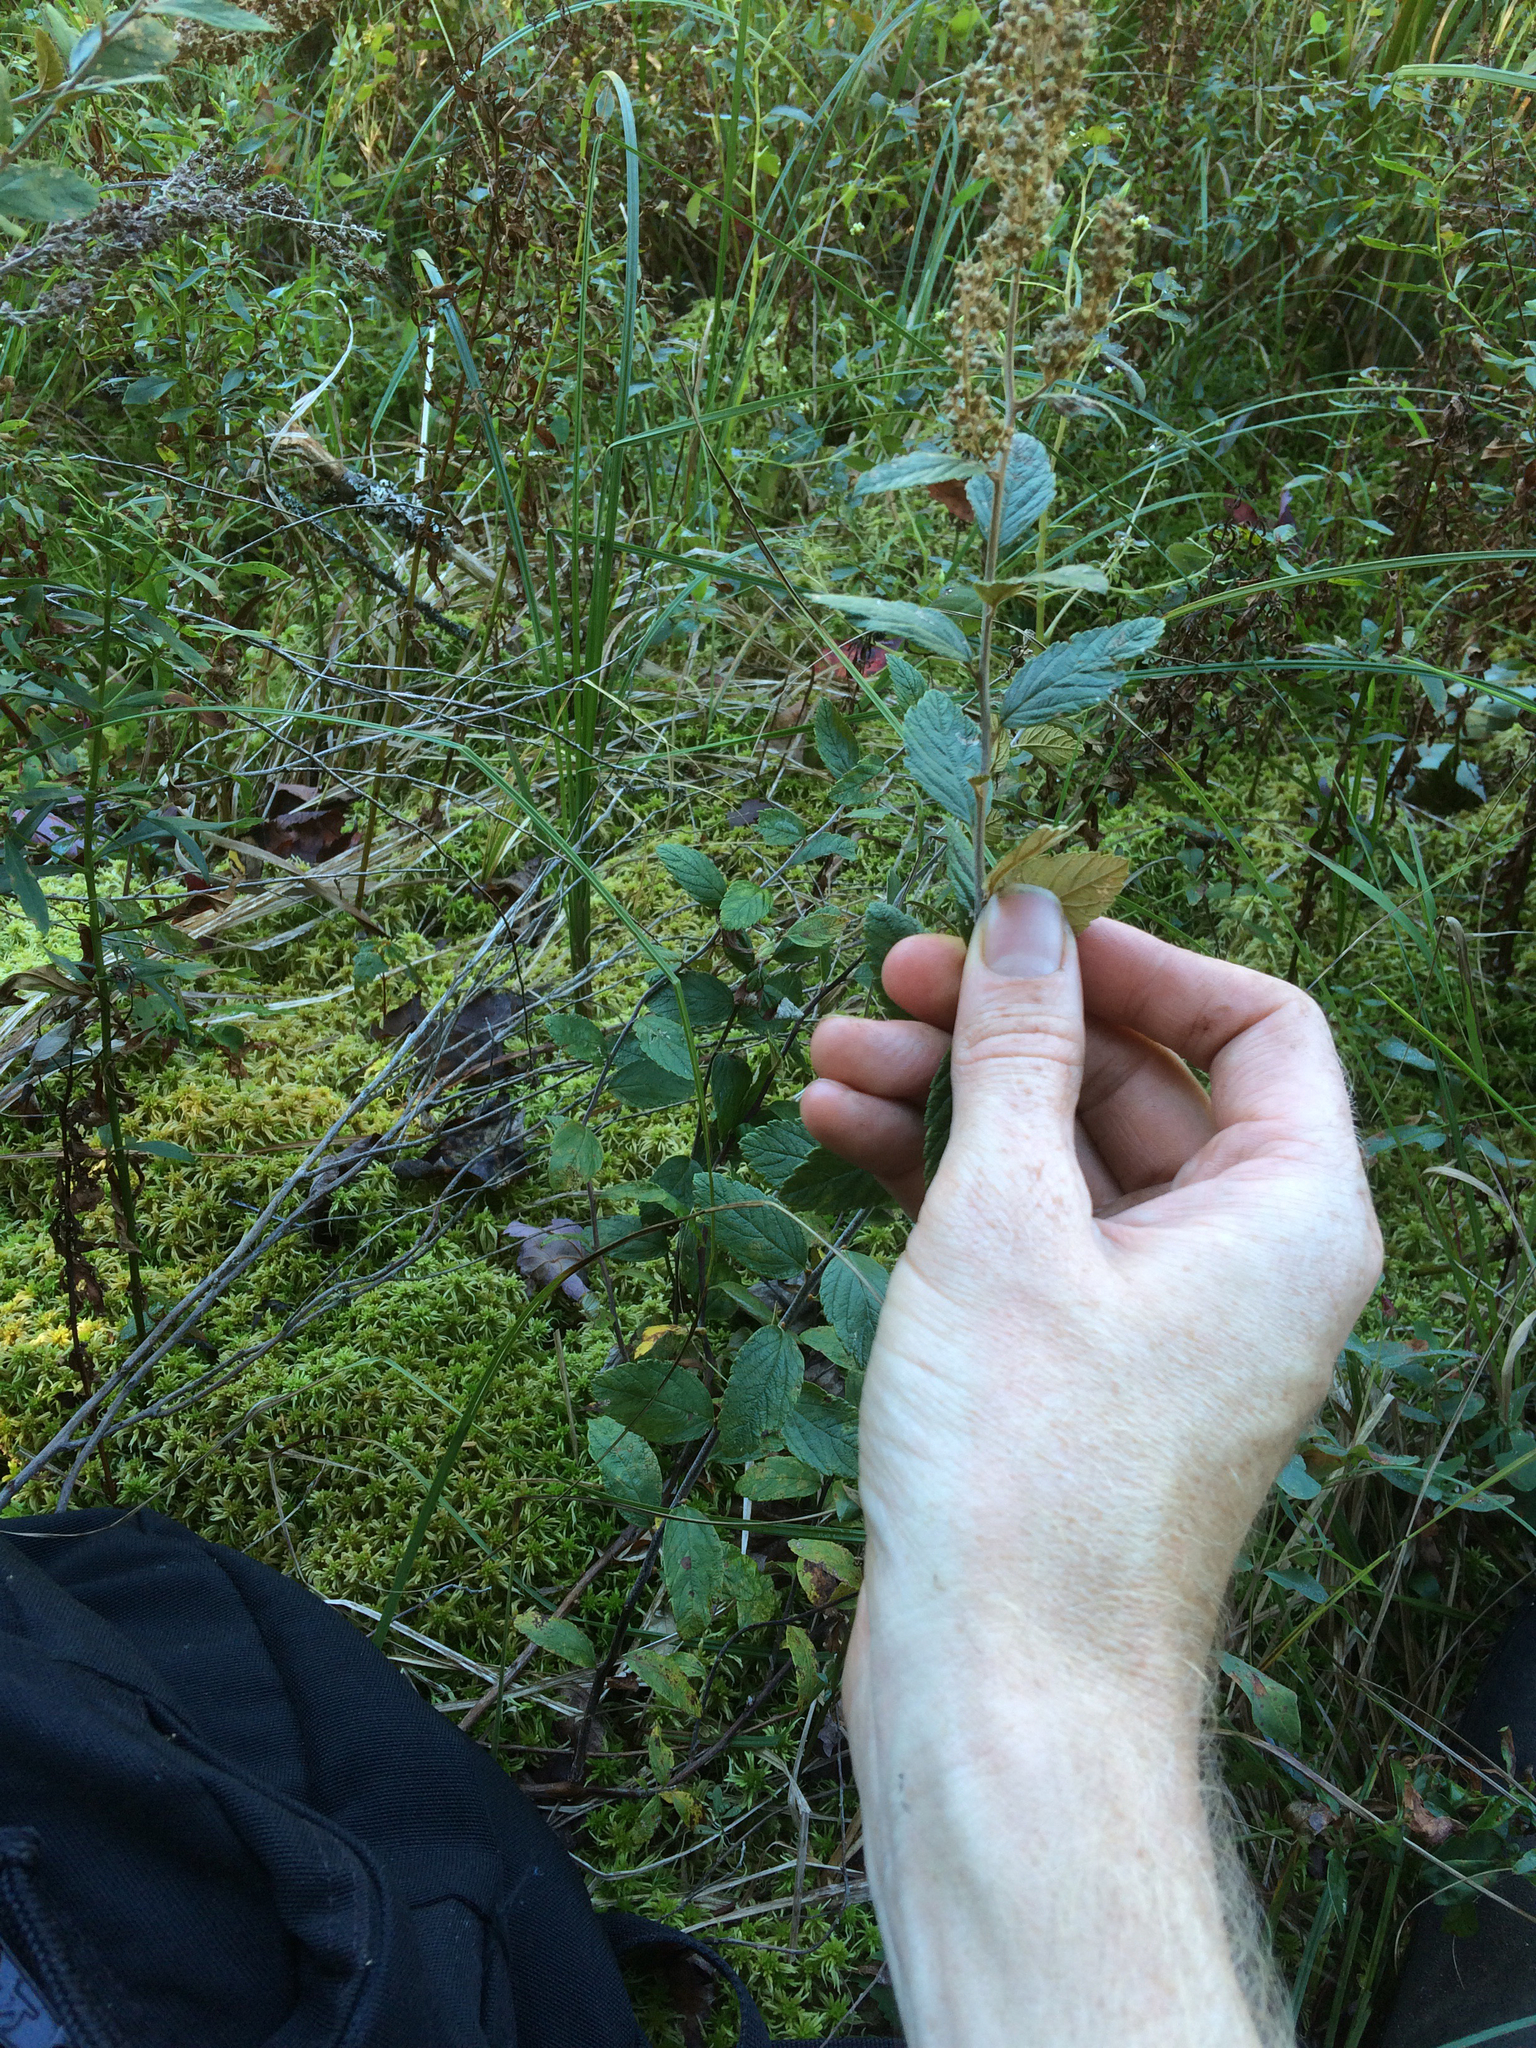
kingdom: Plantae
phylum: Tracheophyta
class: Magnoliopsida
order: Rosales
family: Rosaceae
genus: Spiraea
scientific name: Spiraea tomentosa
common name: Hardhack
